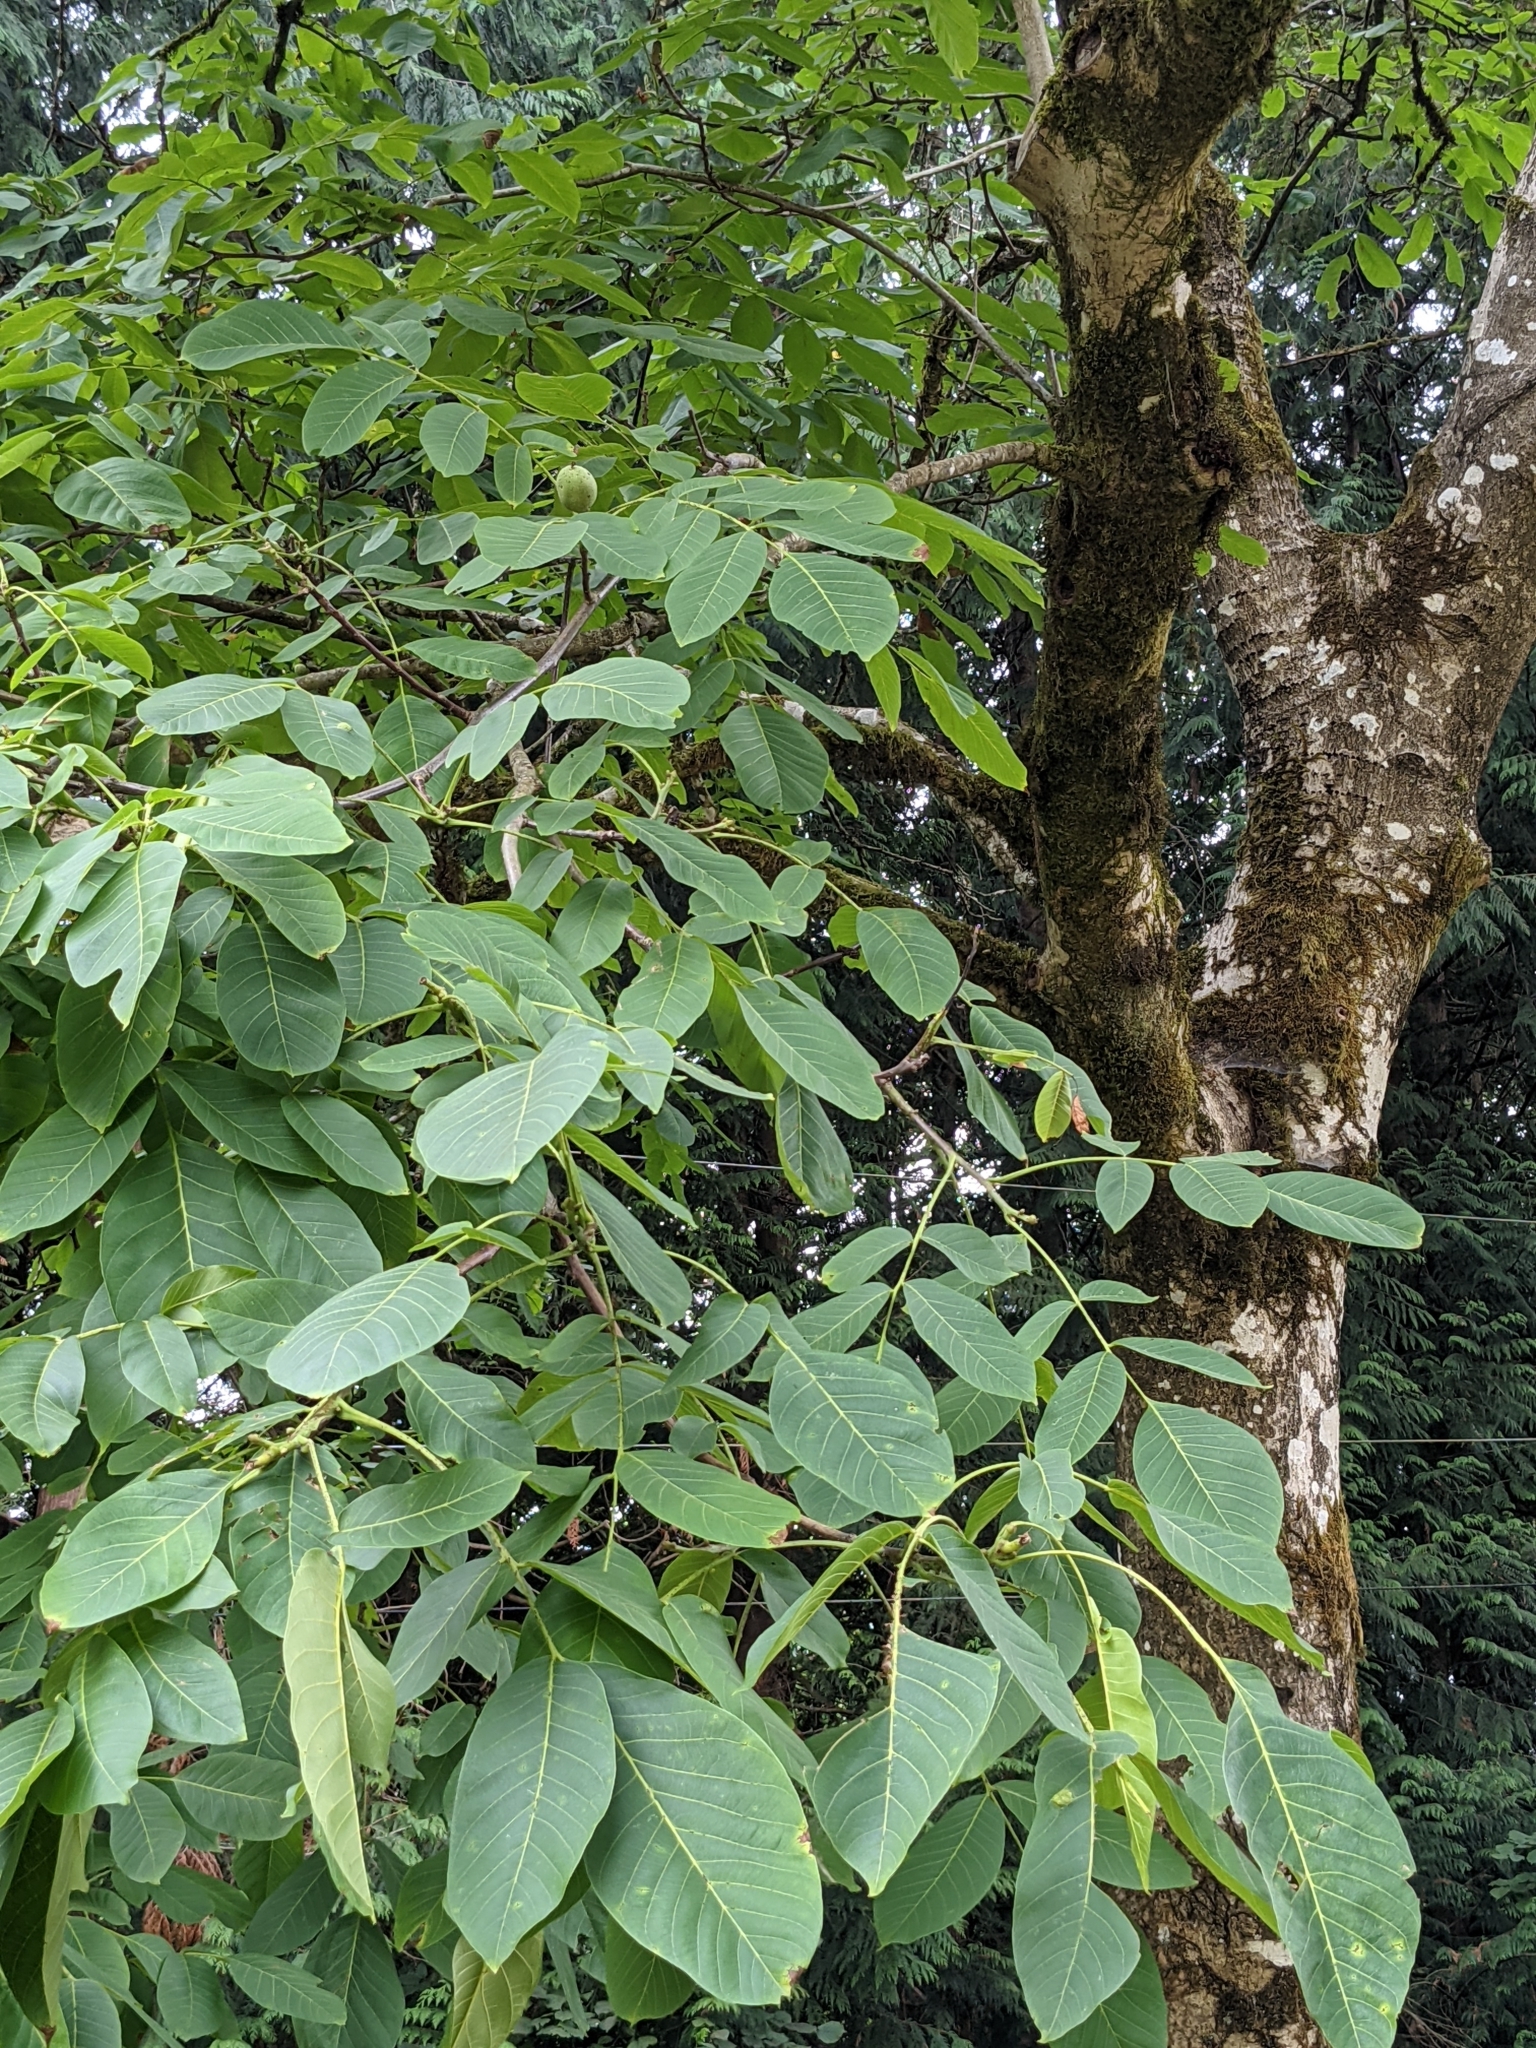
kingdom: Plantae
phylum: Tracheophyta
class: Magnoliopsida
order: Fagales
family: Juglandaceae
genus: Juglans
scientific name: Juglans regia
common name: Walnut
